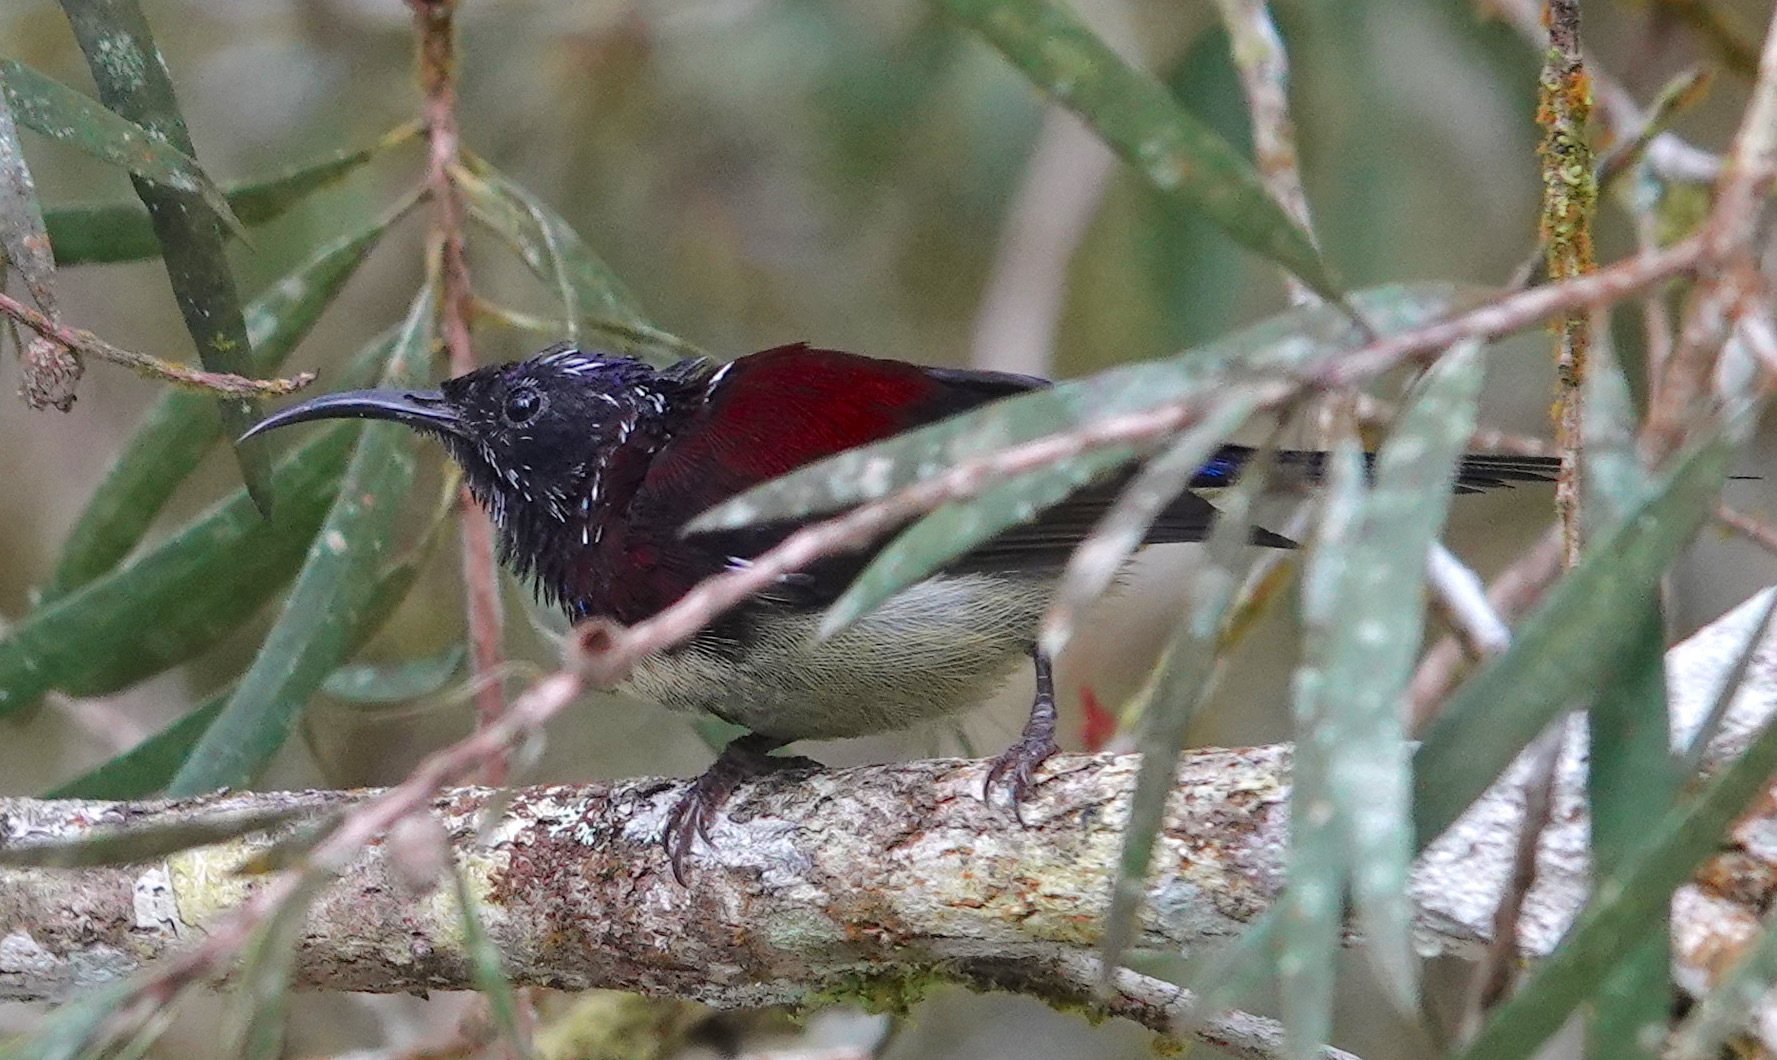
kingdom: Animalia
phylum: Chordata
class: Aves
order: Passeriformes
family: Nectariniidae
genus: Aethopyga
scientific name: Aethopyga saturata
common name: Black-throated sunbird
